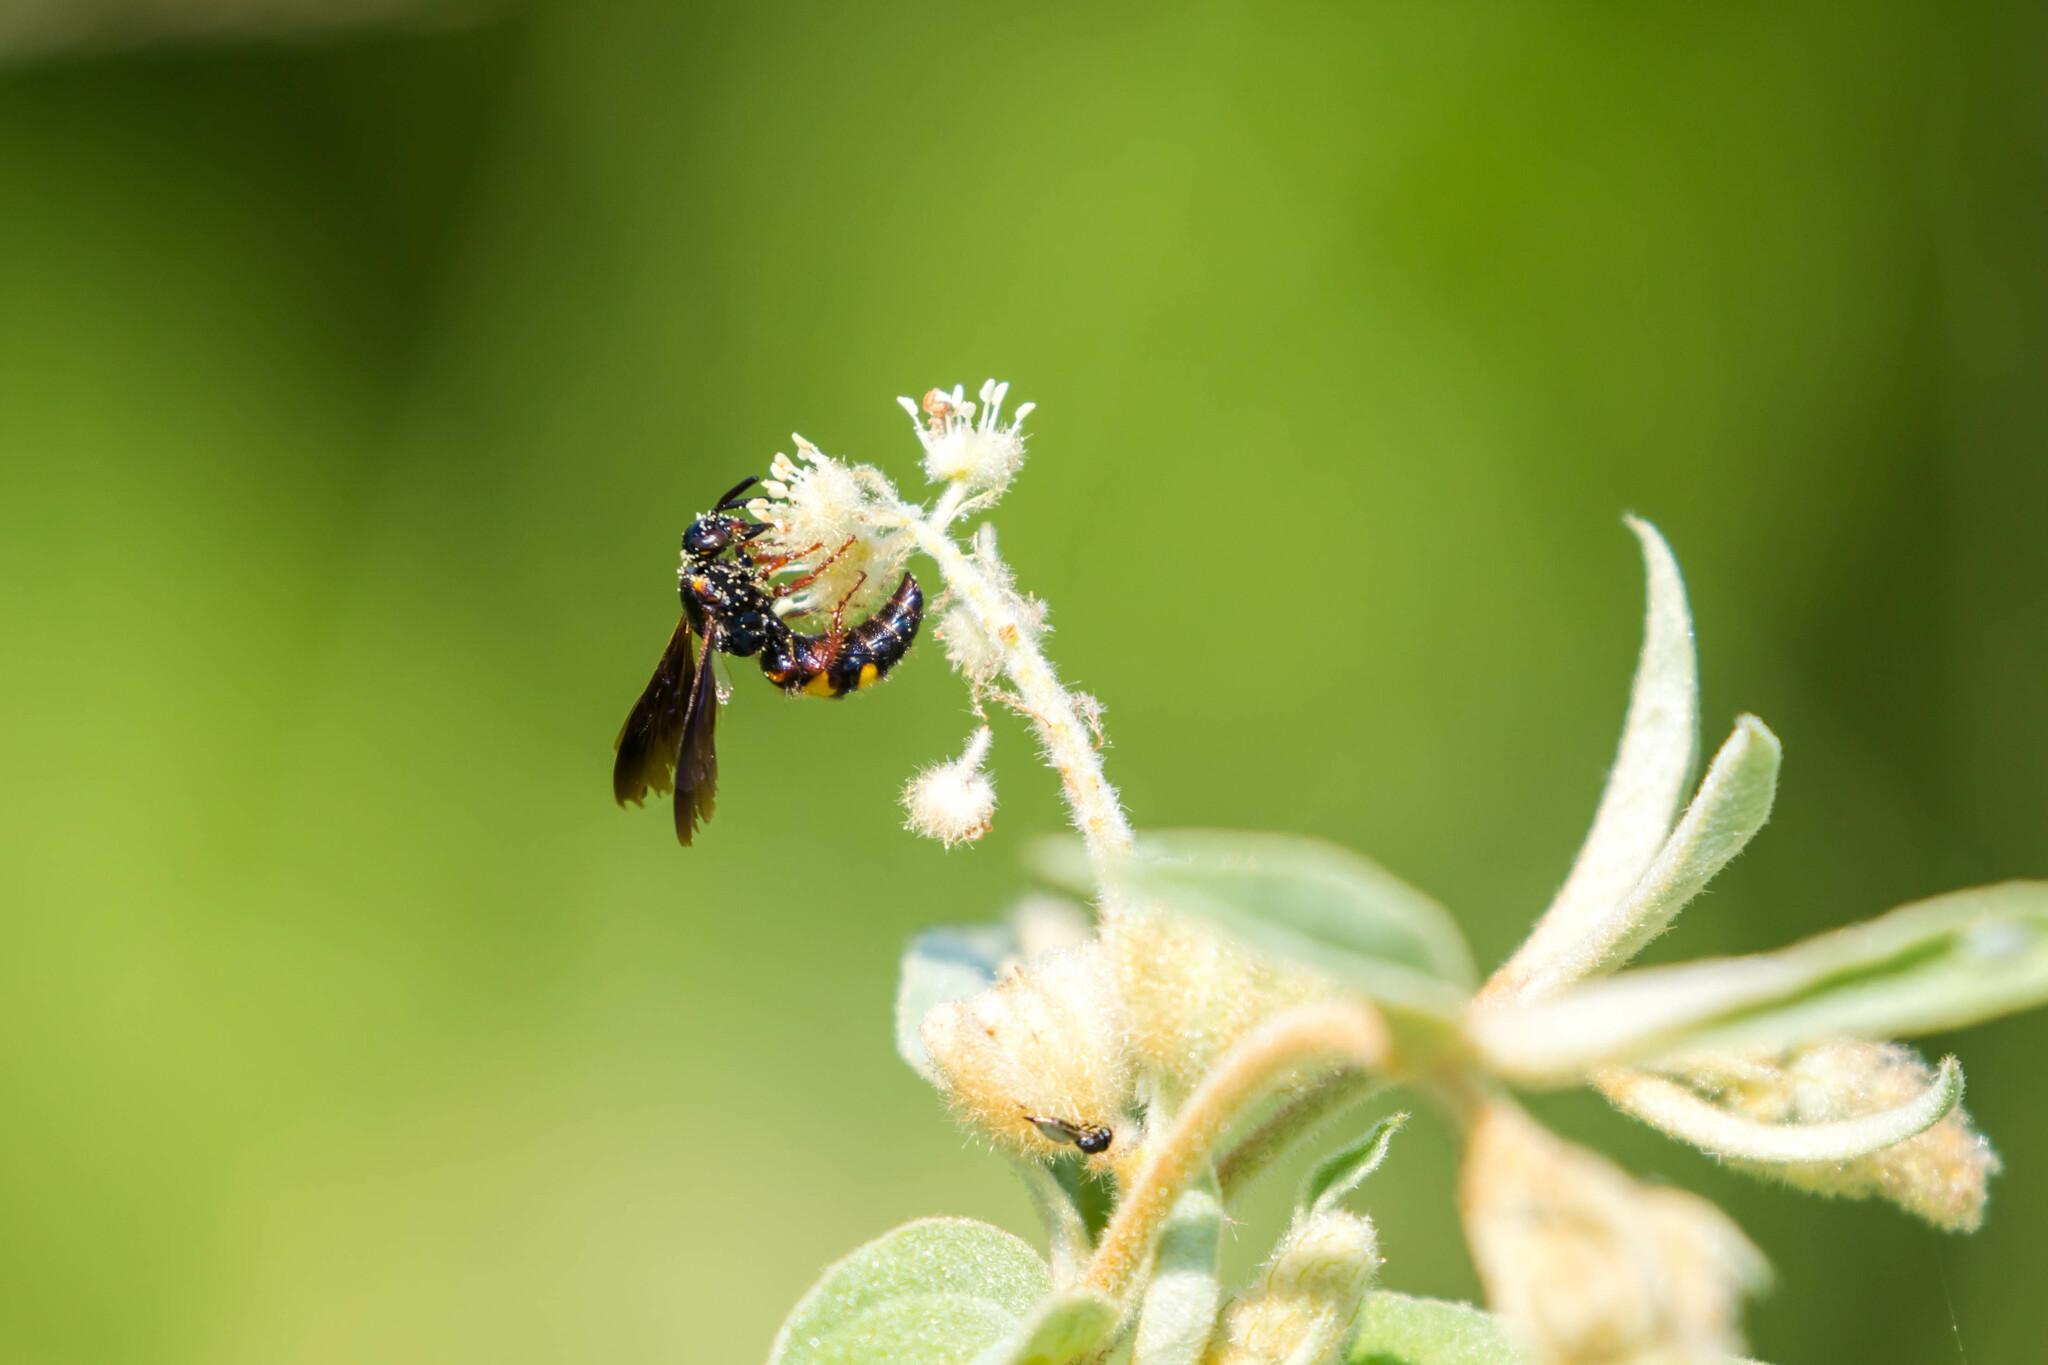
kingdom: Animalia
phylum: Arthropoda
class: Insecta
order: Hymenoptera
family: Scoliidae
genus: Scolia
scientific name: Scolia nobilitata
